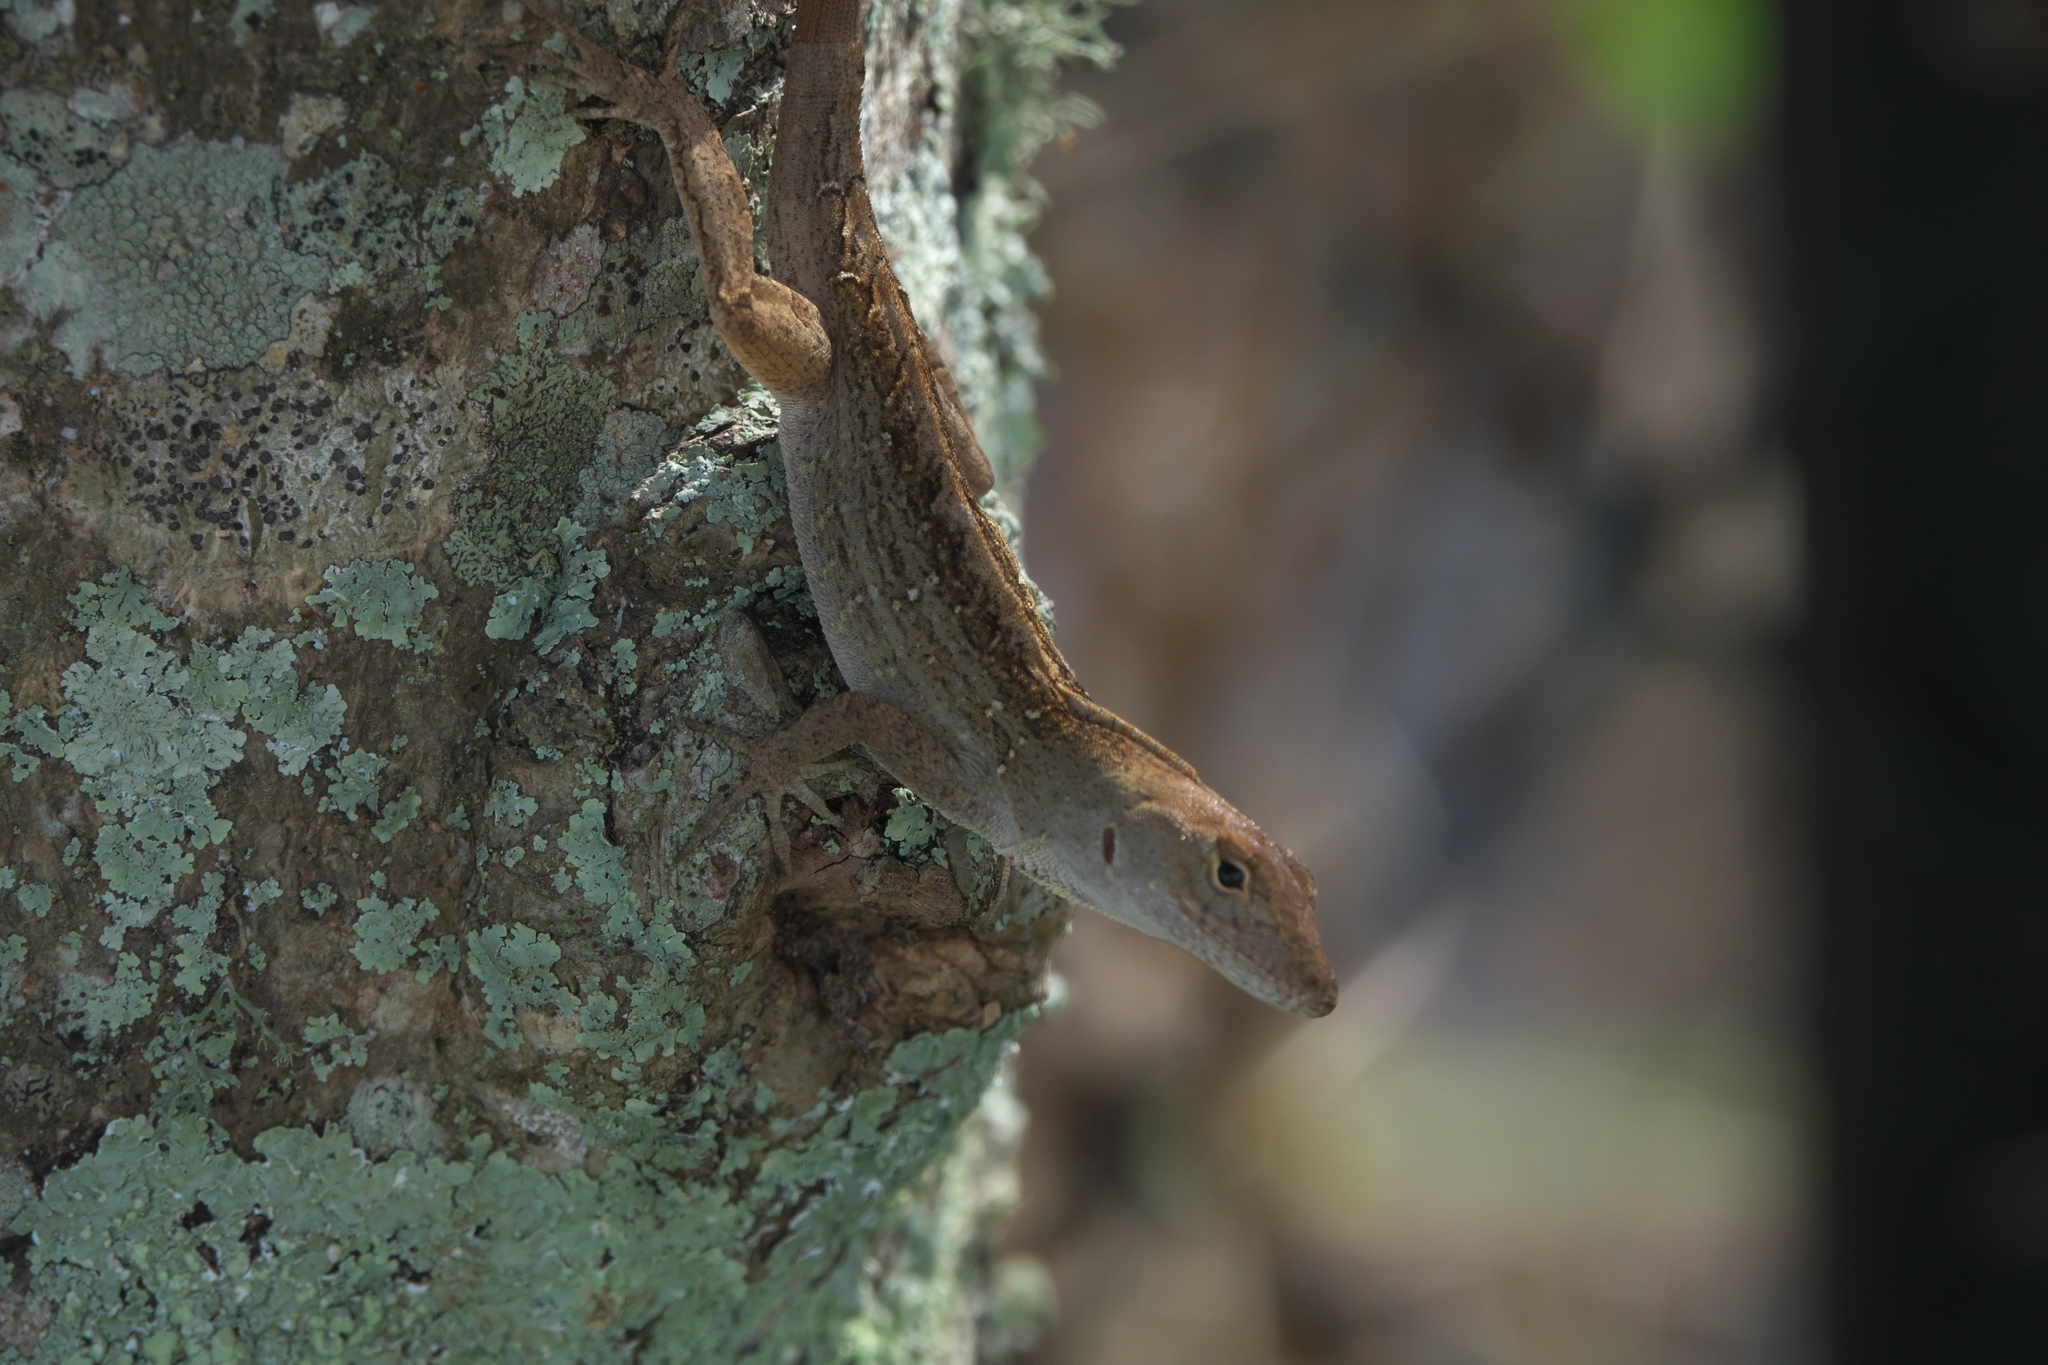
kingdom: Animalia
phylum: Chordata
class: Squamata
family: Dactyloidae
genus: Anolis
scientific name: Anolis sagrei
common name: Brown anole
